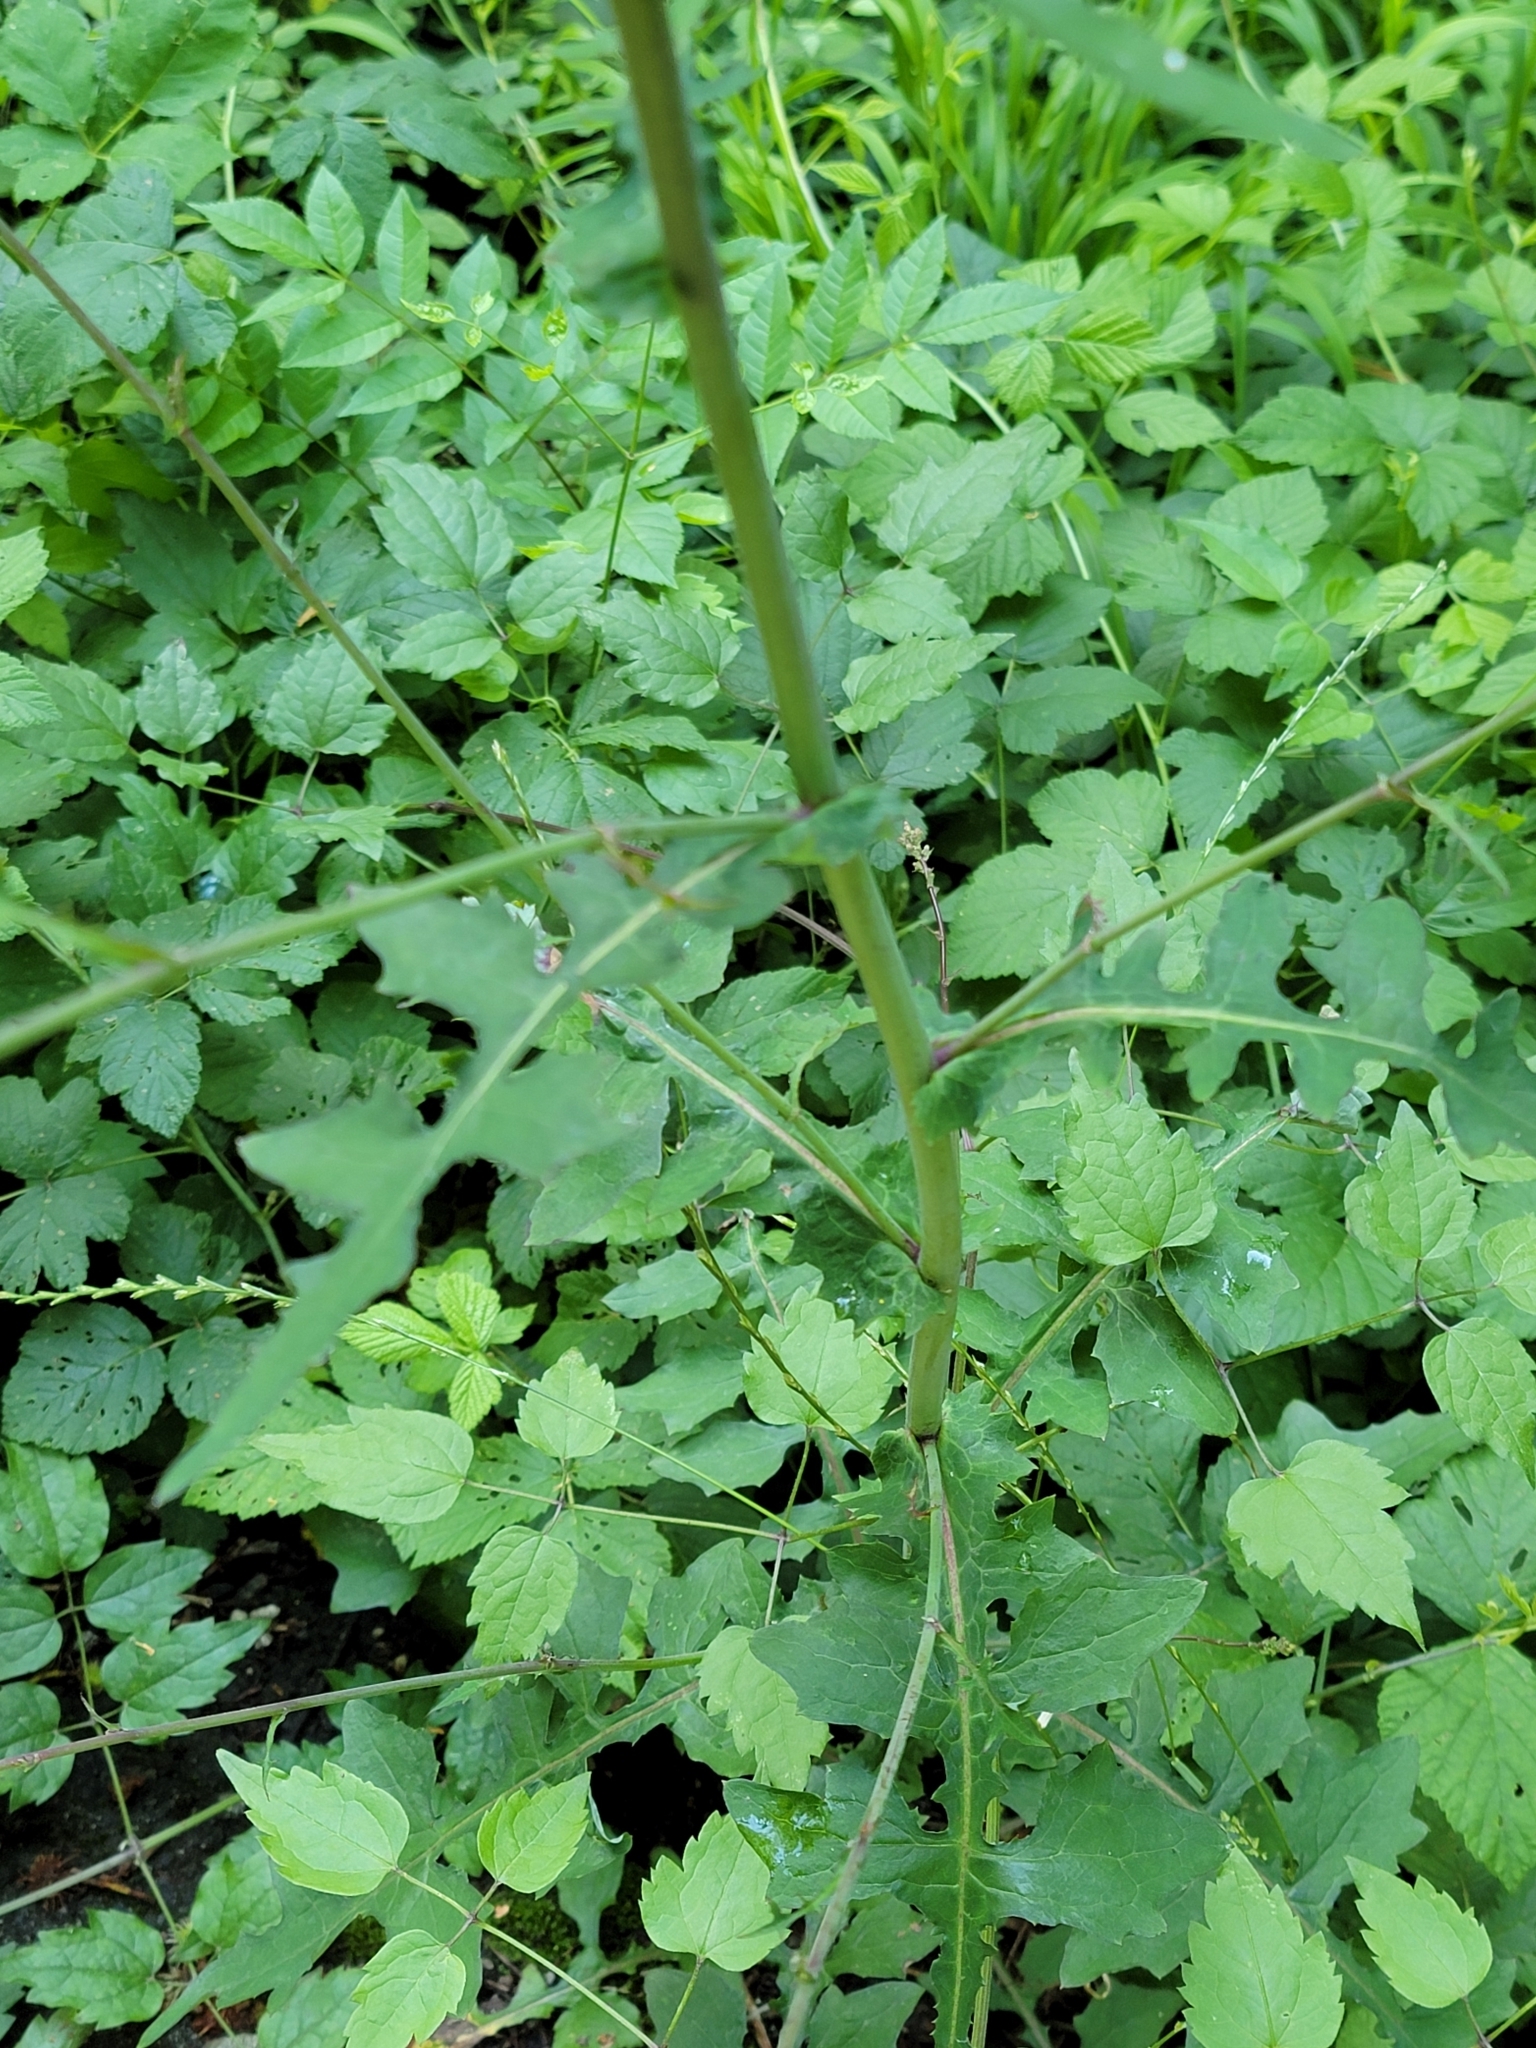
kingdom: Plantae
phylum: Tracheophyta
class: Magnoliopsida
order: Asterales
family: Asteraceae
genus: Mycelis
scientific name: Mycelis muralis
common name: Wall lettuce
